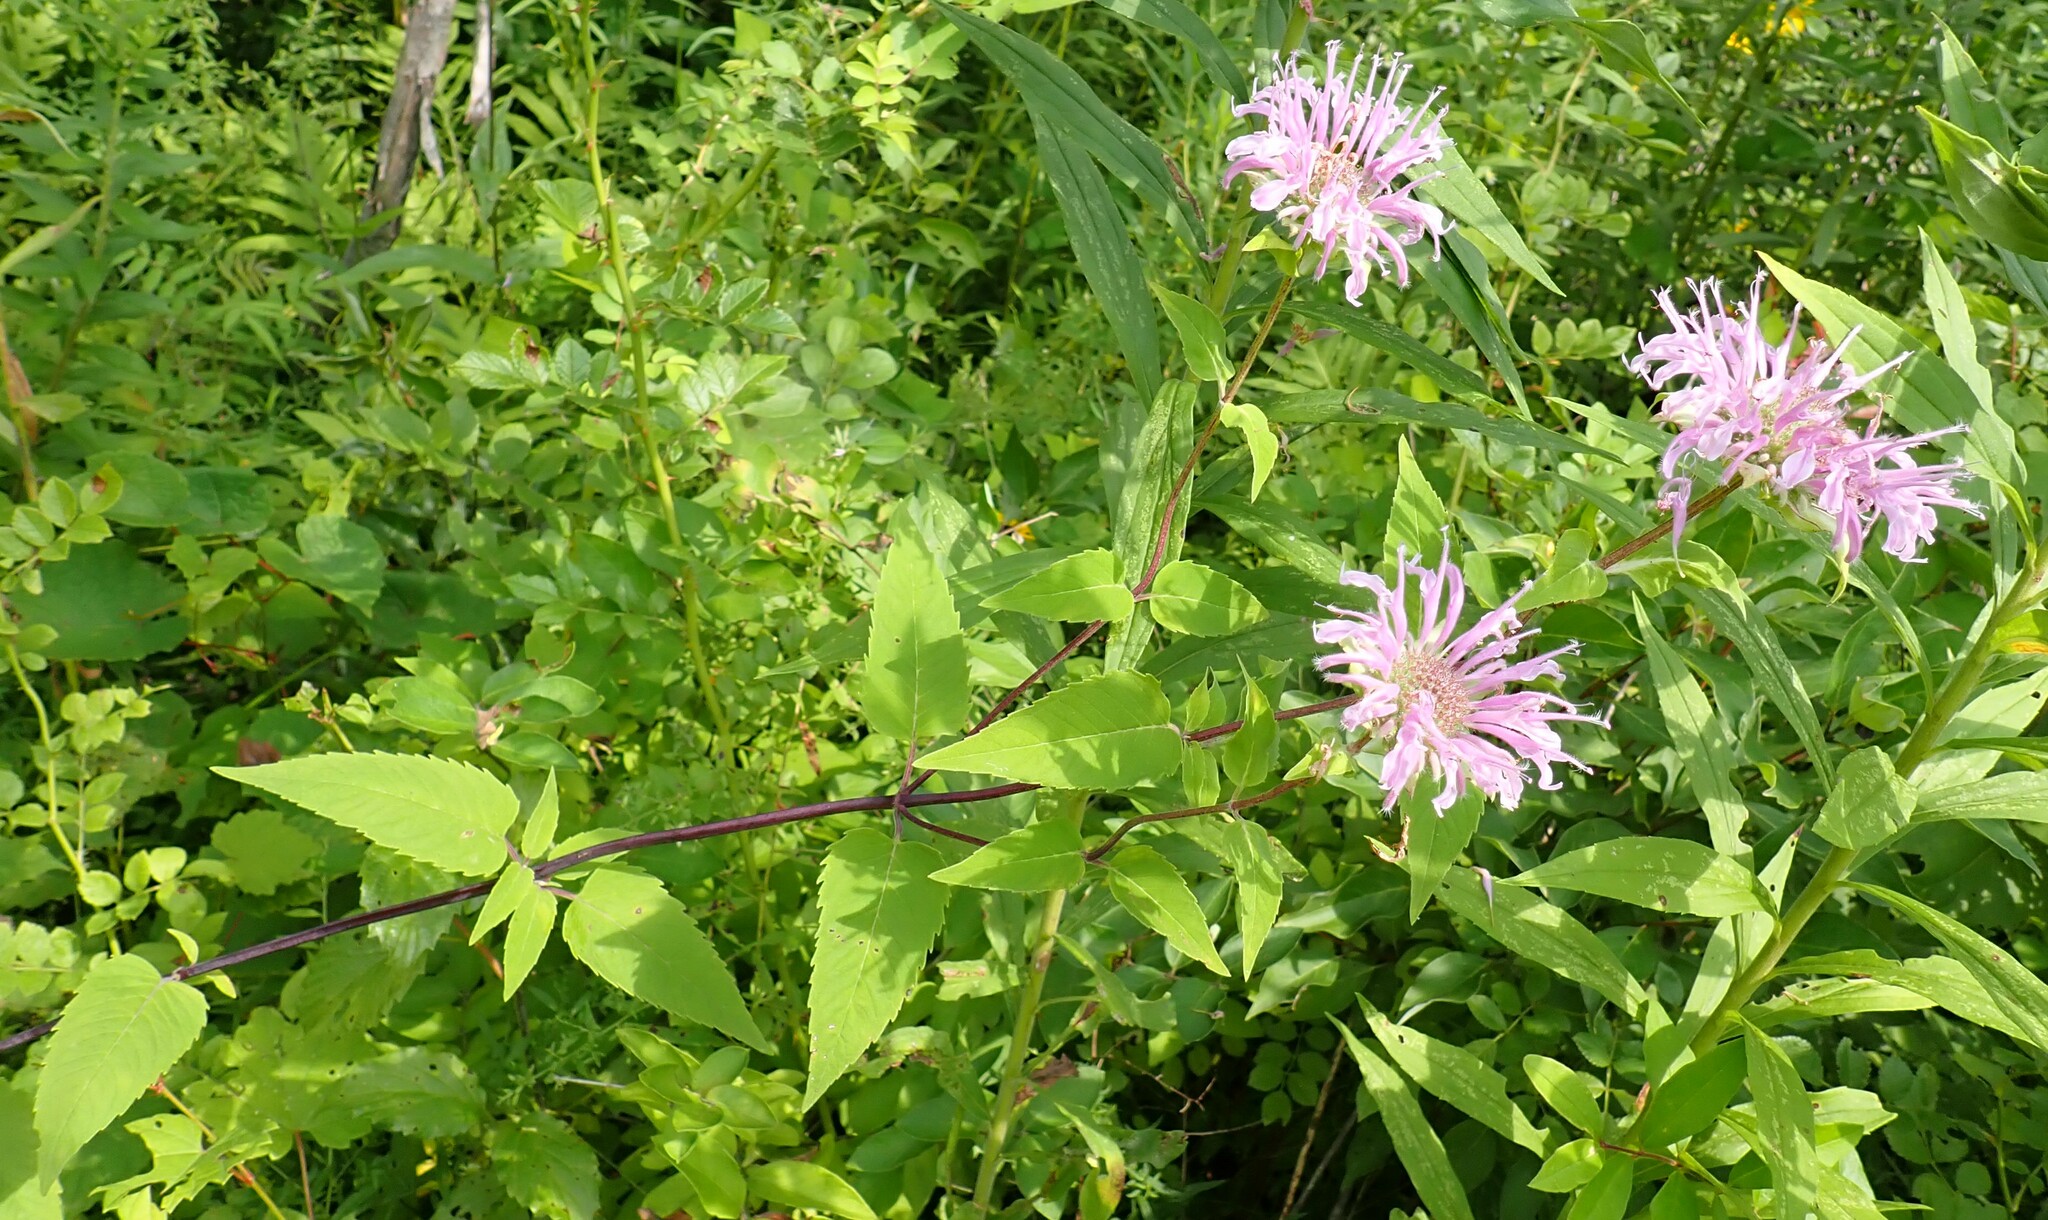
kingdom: Plantae
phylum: Tracheophyta
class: Magnoliopsida
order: Lamiales
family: Lamiaceae
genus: Monarda
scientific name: Monarda fistulosa
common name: Purple beebalm
